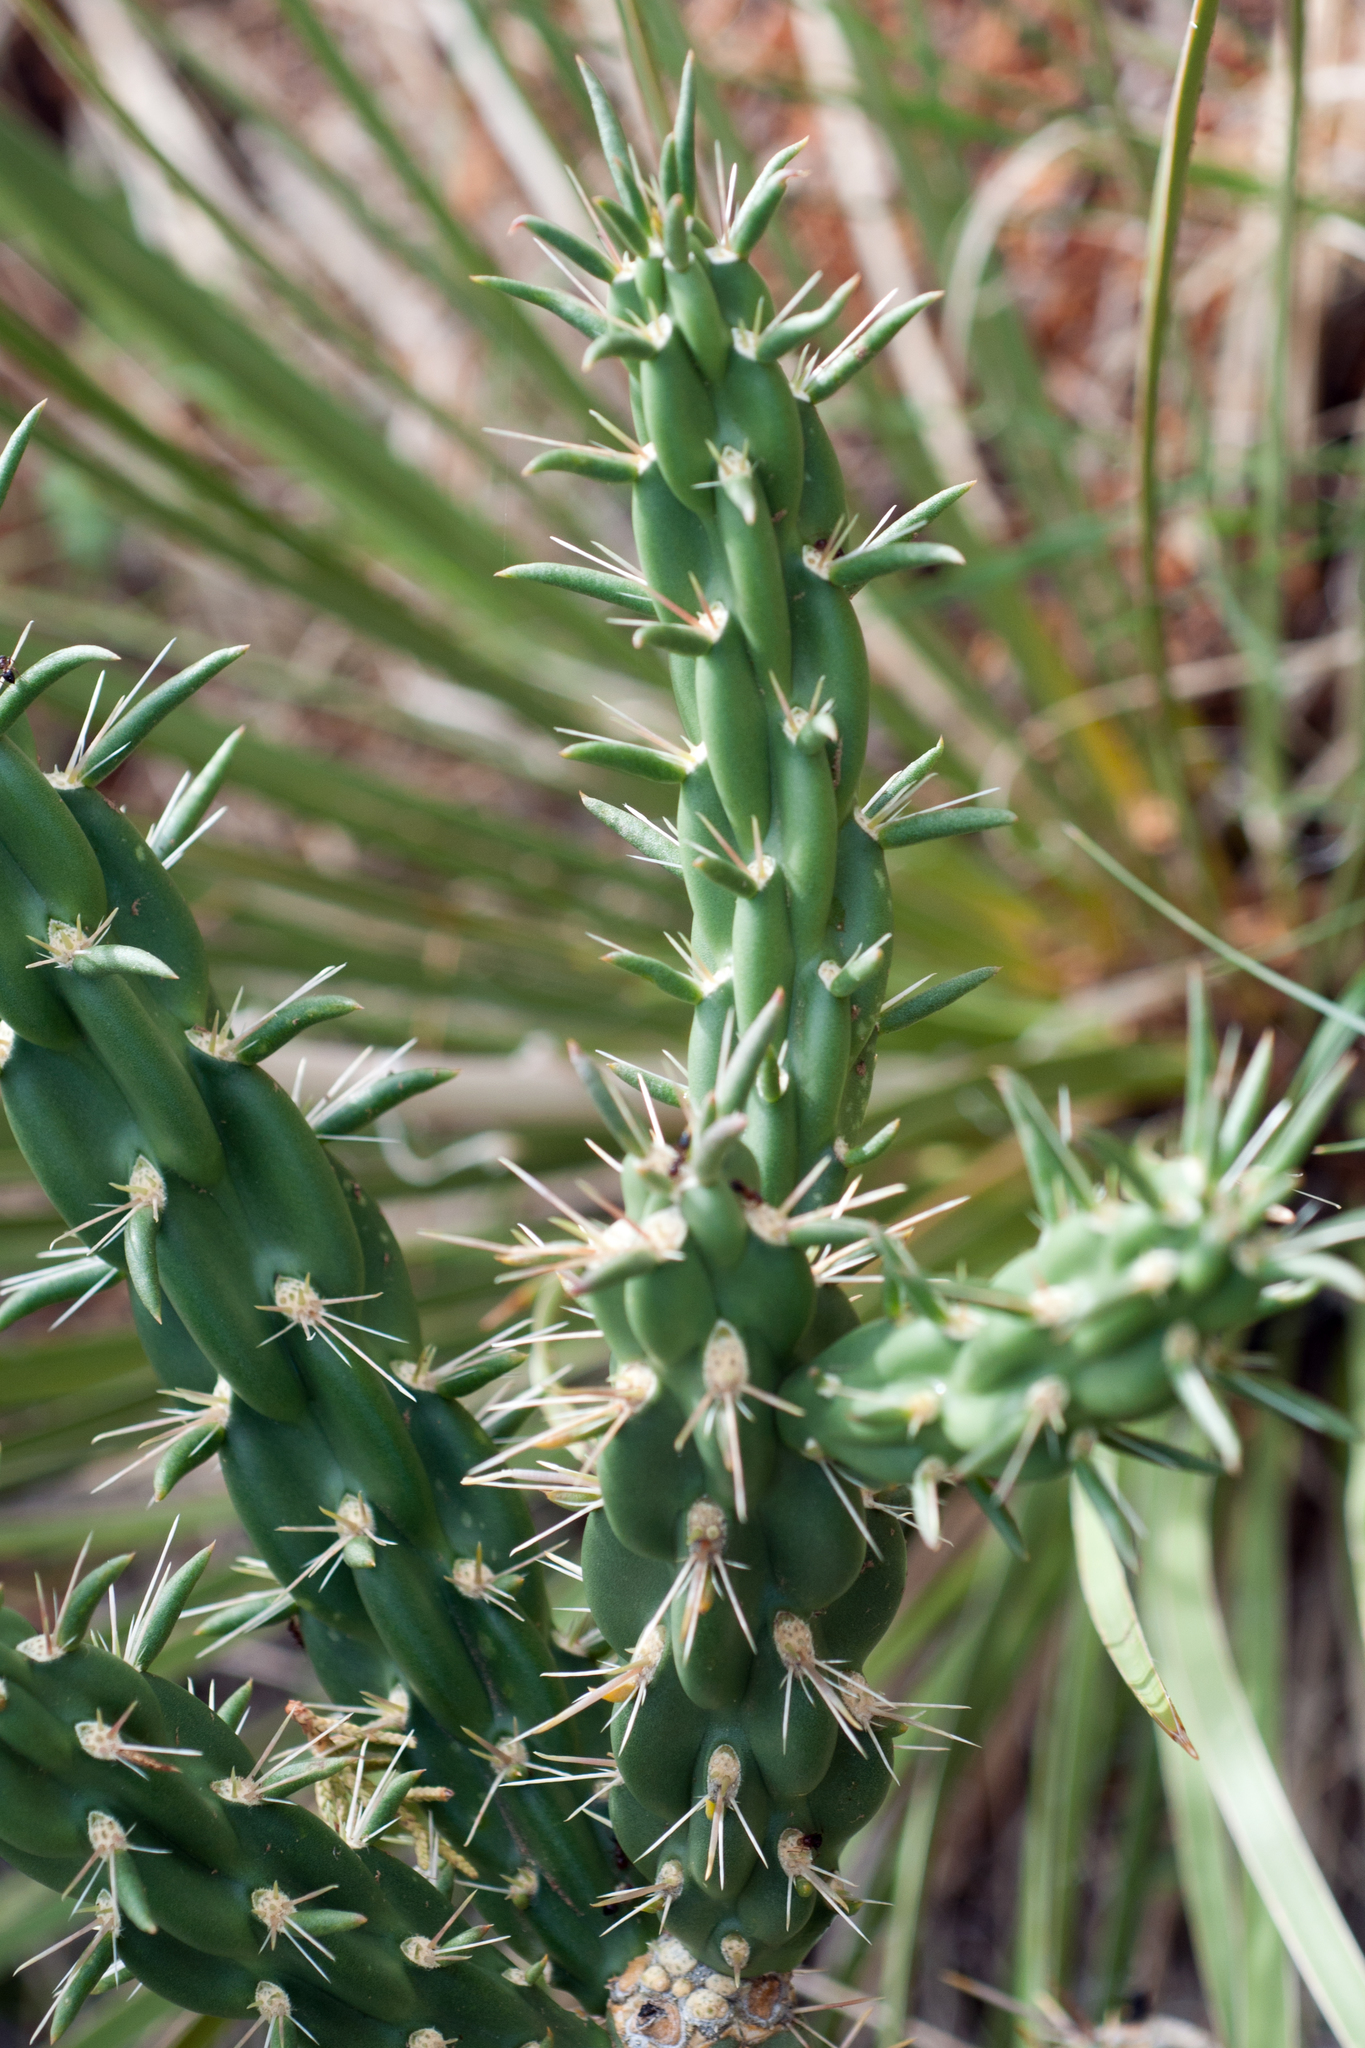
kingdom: Plantae
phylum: Tracheophyta
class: Magnoliopsida
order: Caryophyllales
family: Cactaceae
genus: Cylindropuntia
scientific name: Cylindropuntia imbricata
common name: Candelabrum cactus
